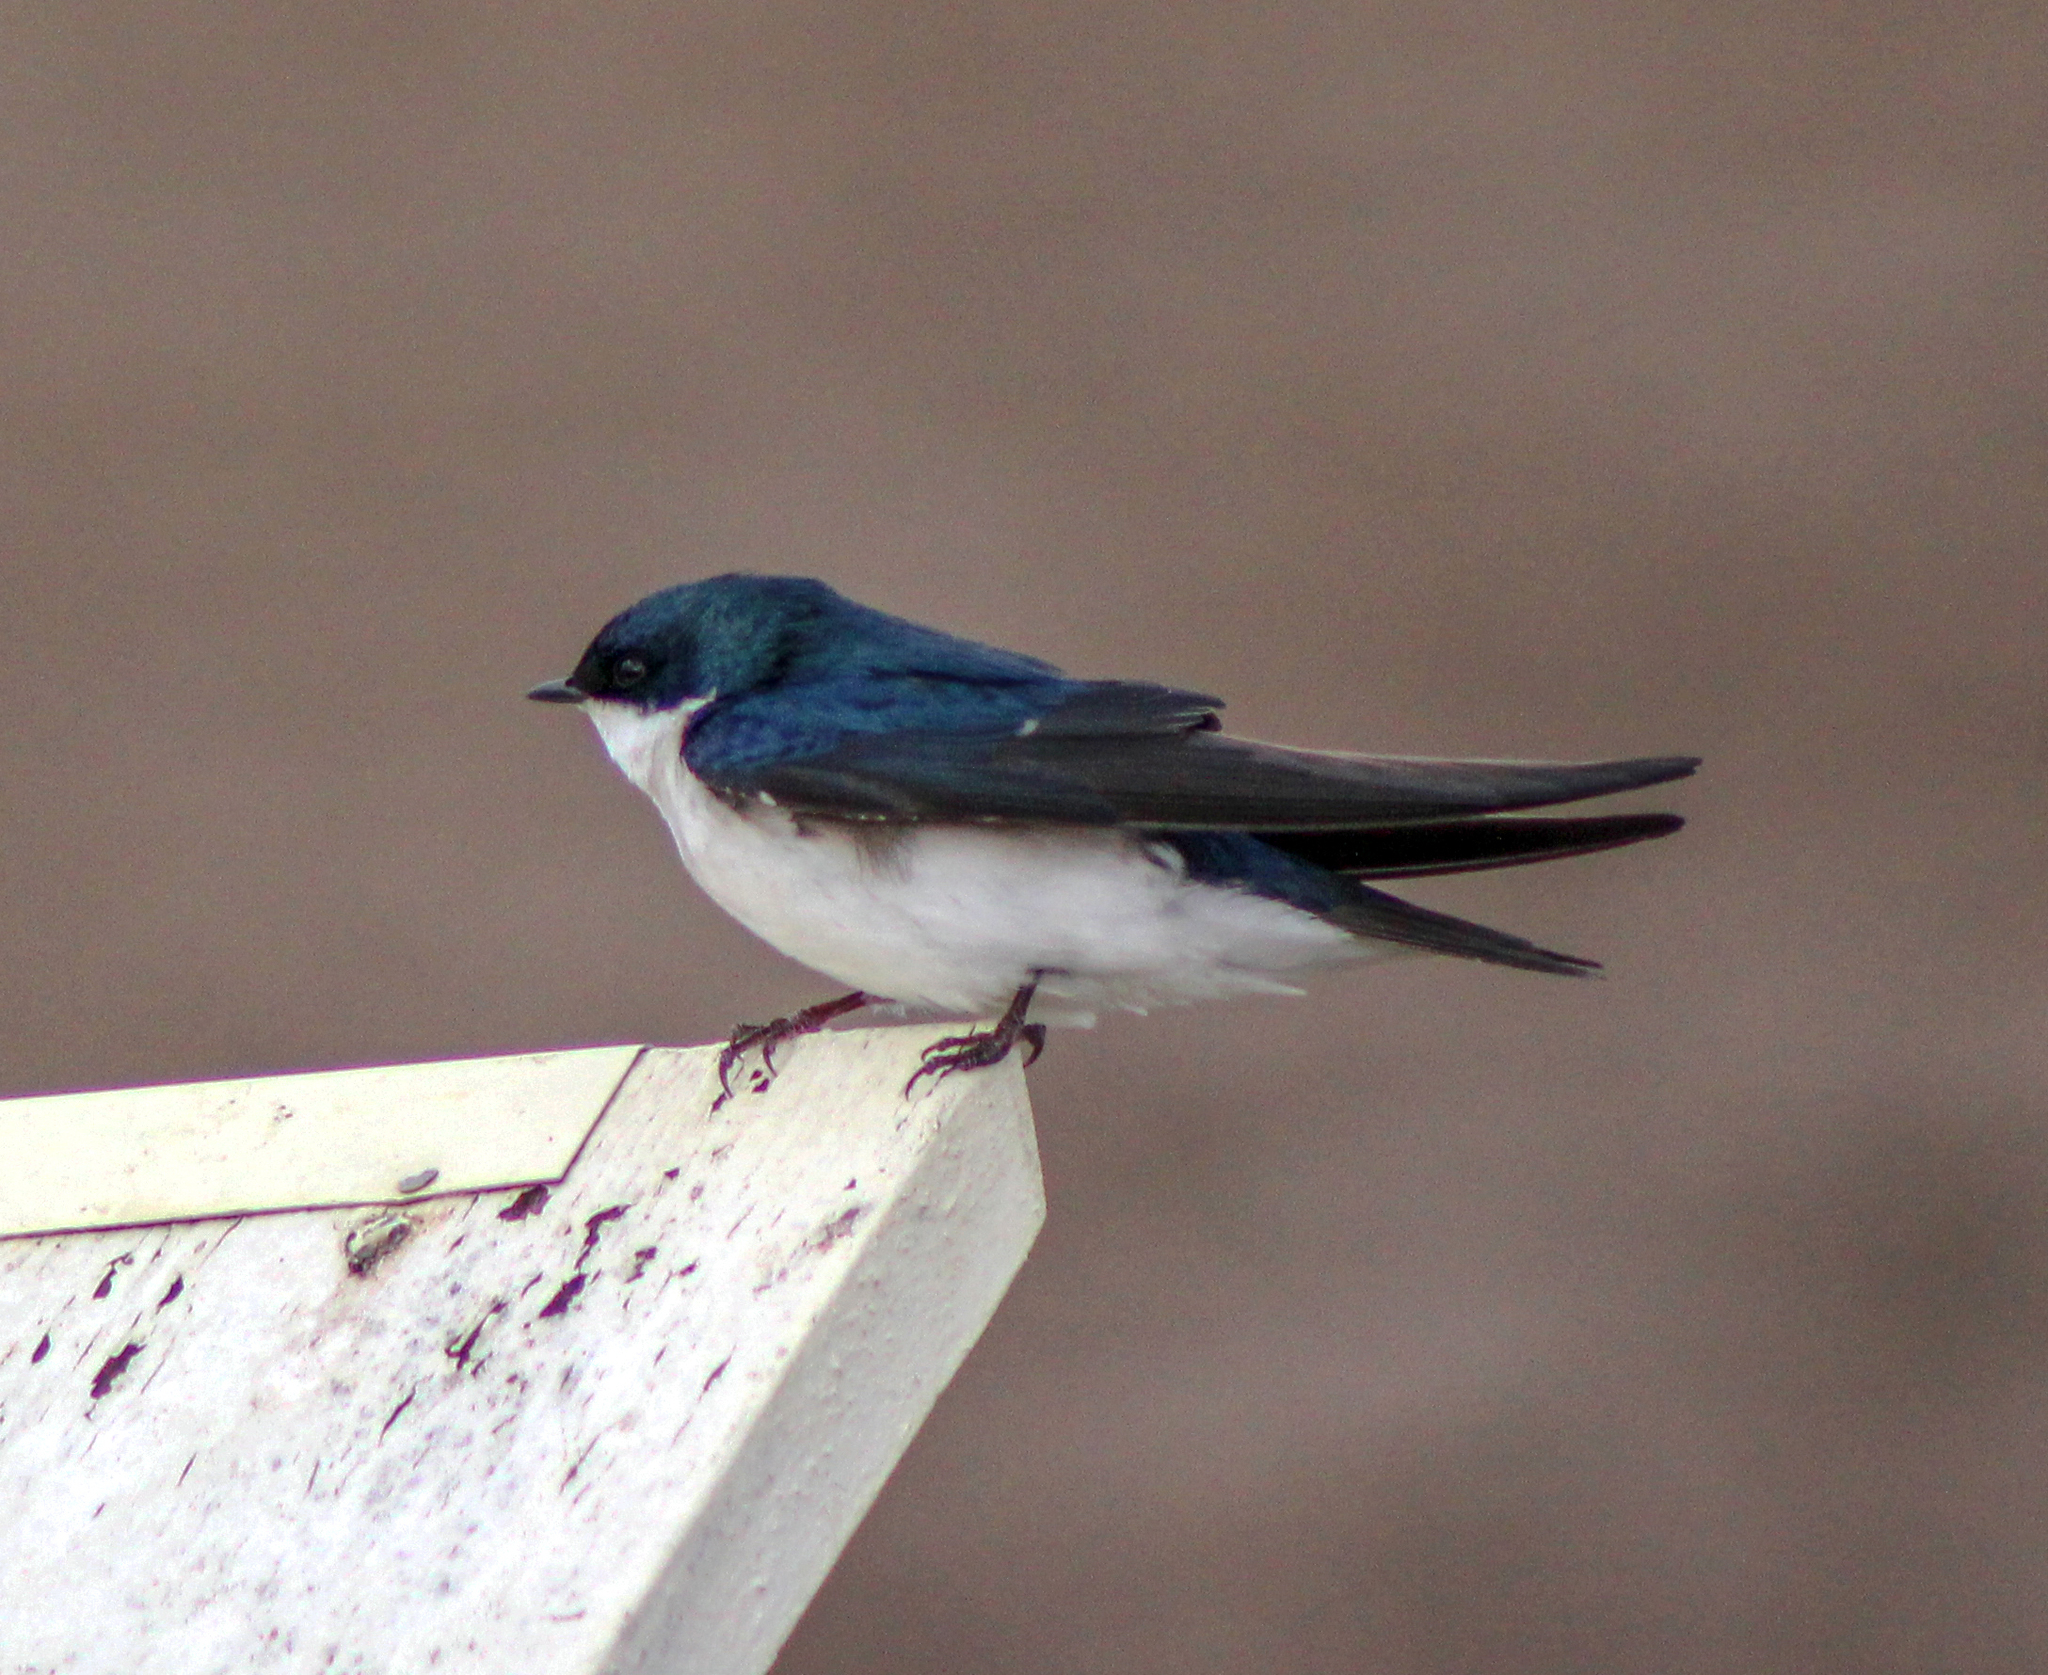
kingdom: Animalia
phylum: Chordata
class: Aves
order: Passeriformes
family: Hirundinidae
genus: Tachycineta
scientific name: Tachycineta bicolor
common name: Tree swallow
